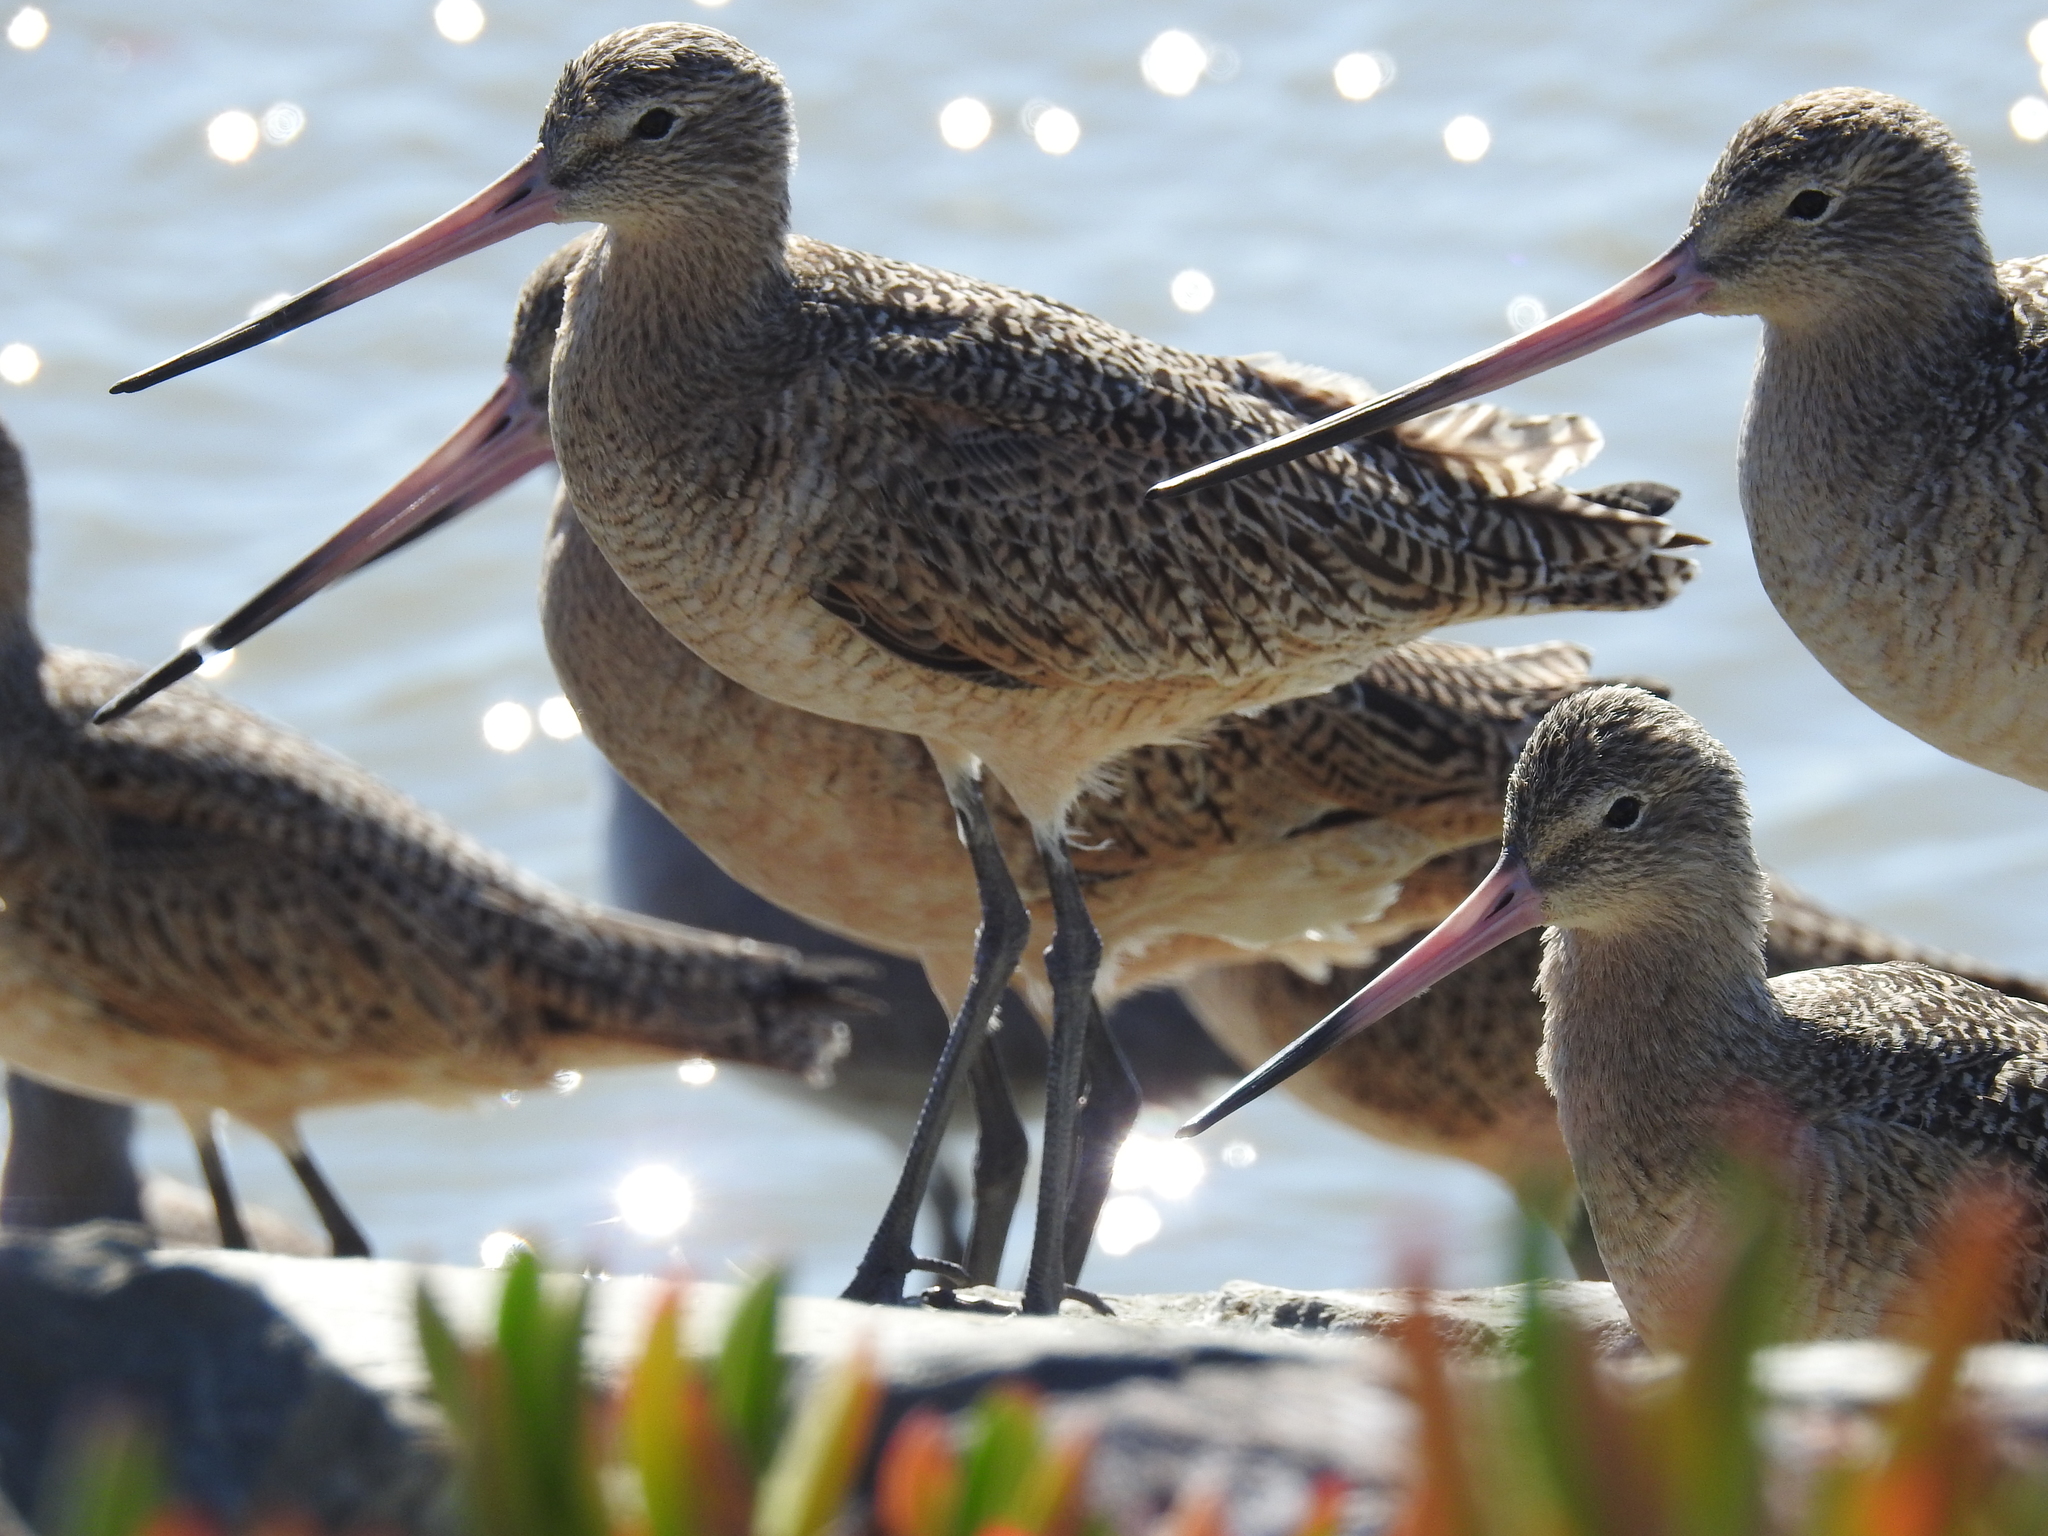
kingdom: Animalia
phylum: Chordata
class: Aves
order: Charadriiformes
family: Scolopacidae
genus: Limosa
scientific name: Limosa fedoa
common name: Marbled godwit
